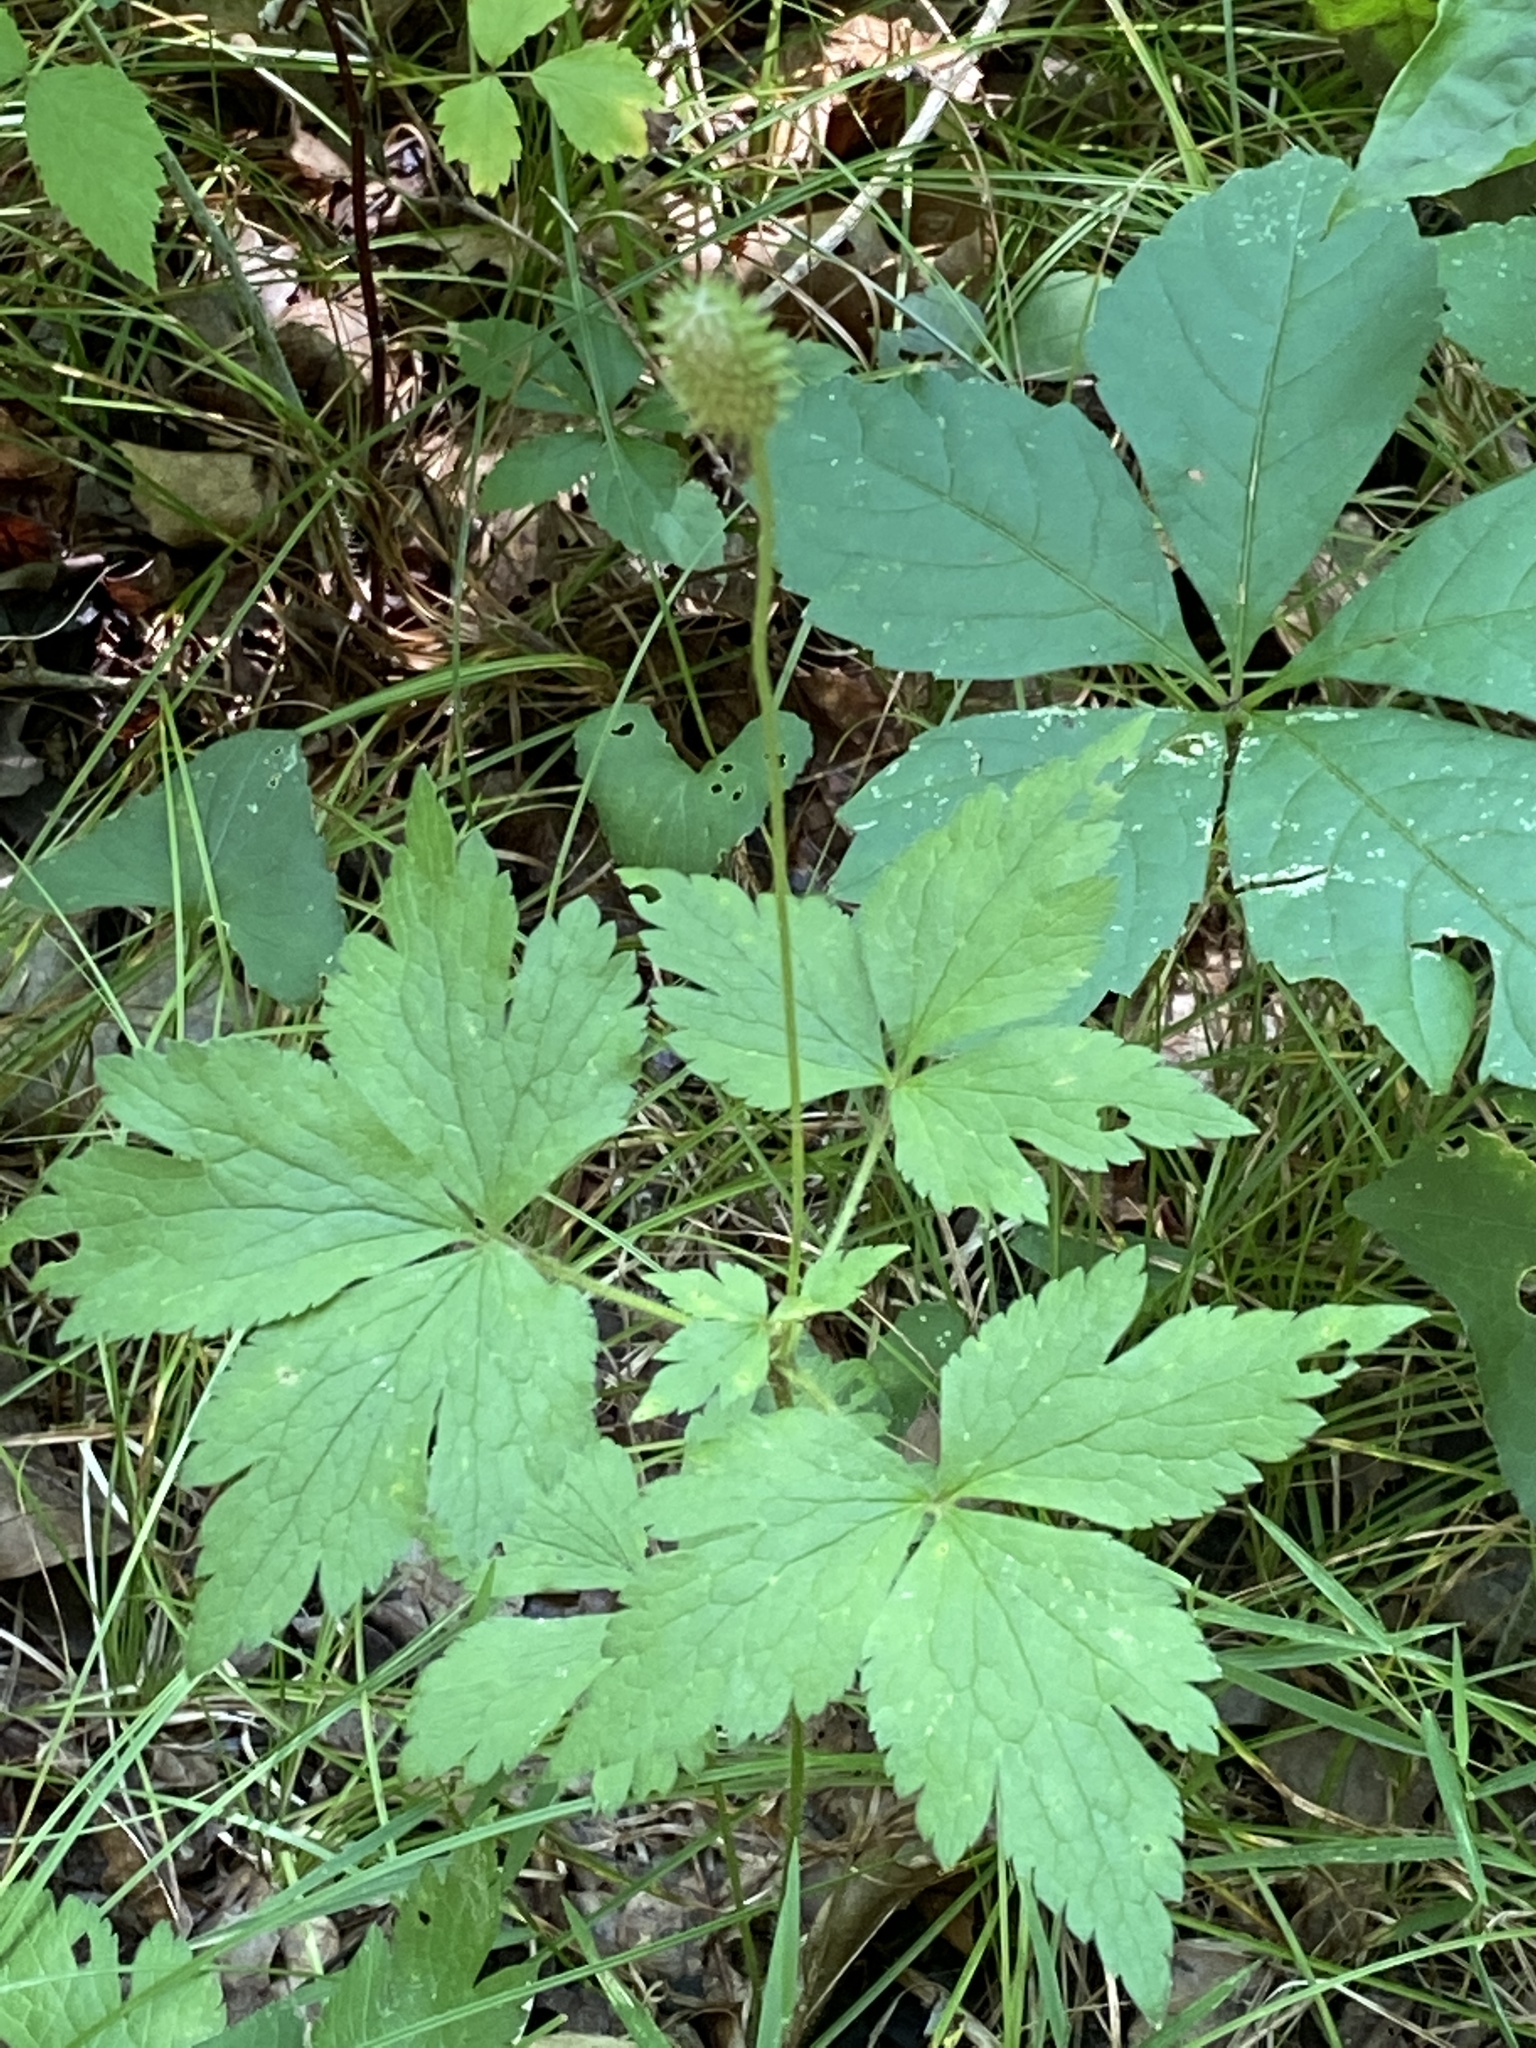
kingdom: Plantae
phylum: Tracheophyta
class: Magnoliopsida
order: Ranunculales
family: Ranunculaceae
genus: Anemone
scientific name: Anemone virginiana
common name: Tall anemone
